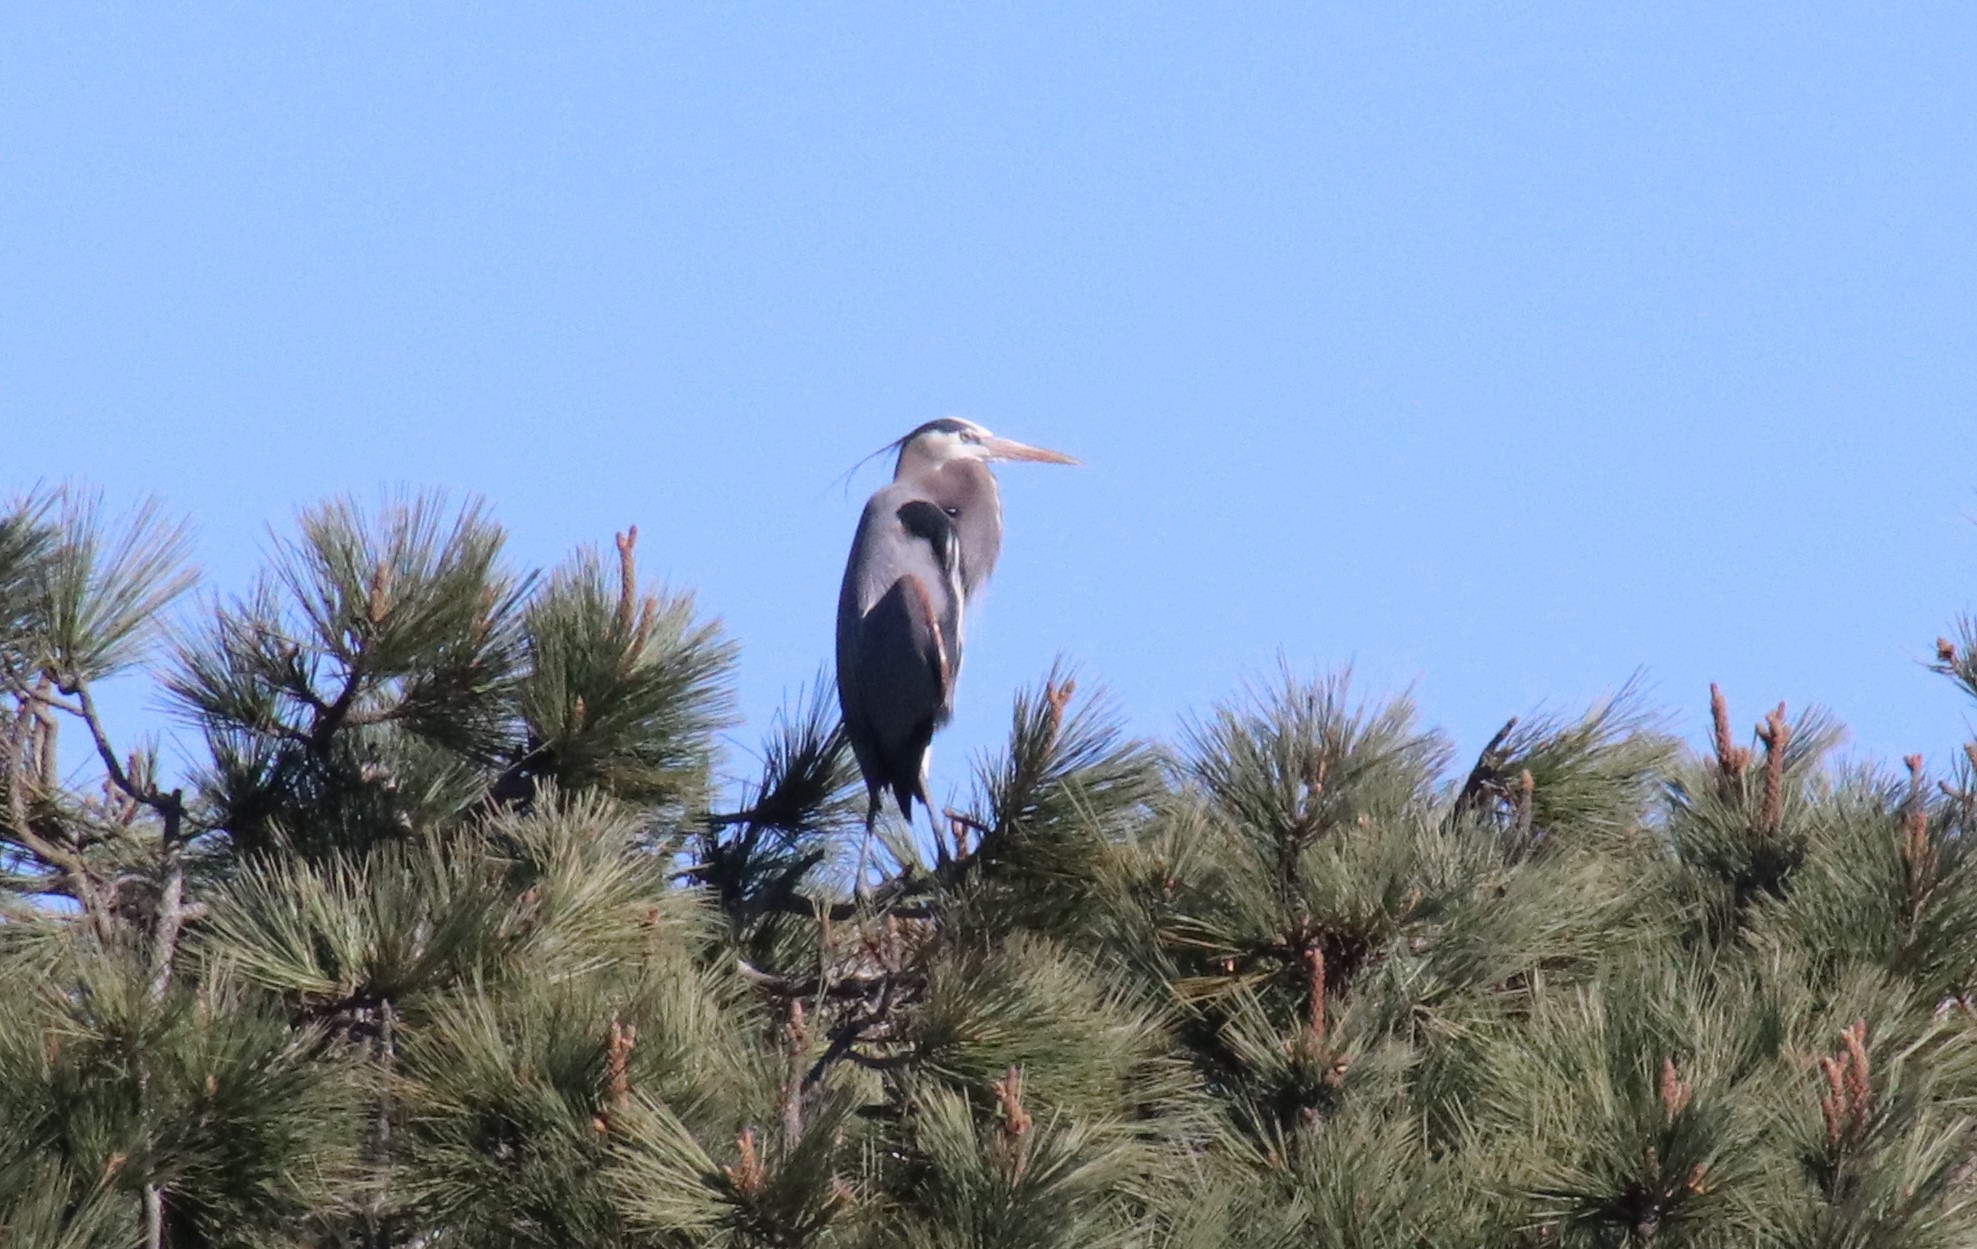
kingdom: Animalia
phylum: Chordata
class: Aves
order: Pelecaniformes
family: Ardeidae
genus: Ardea
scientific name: Ardea herodias
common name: Great blue heron
